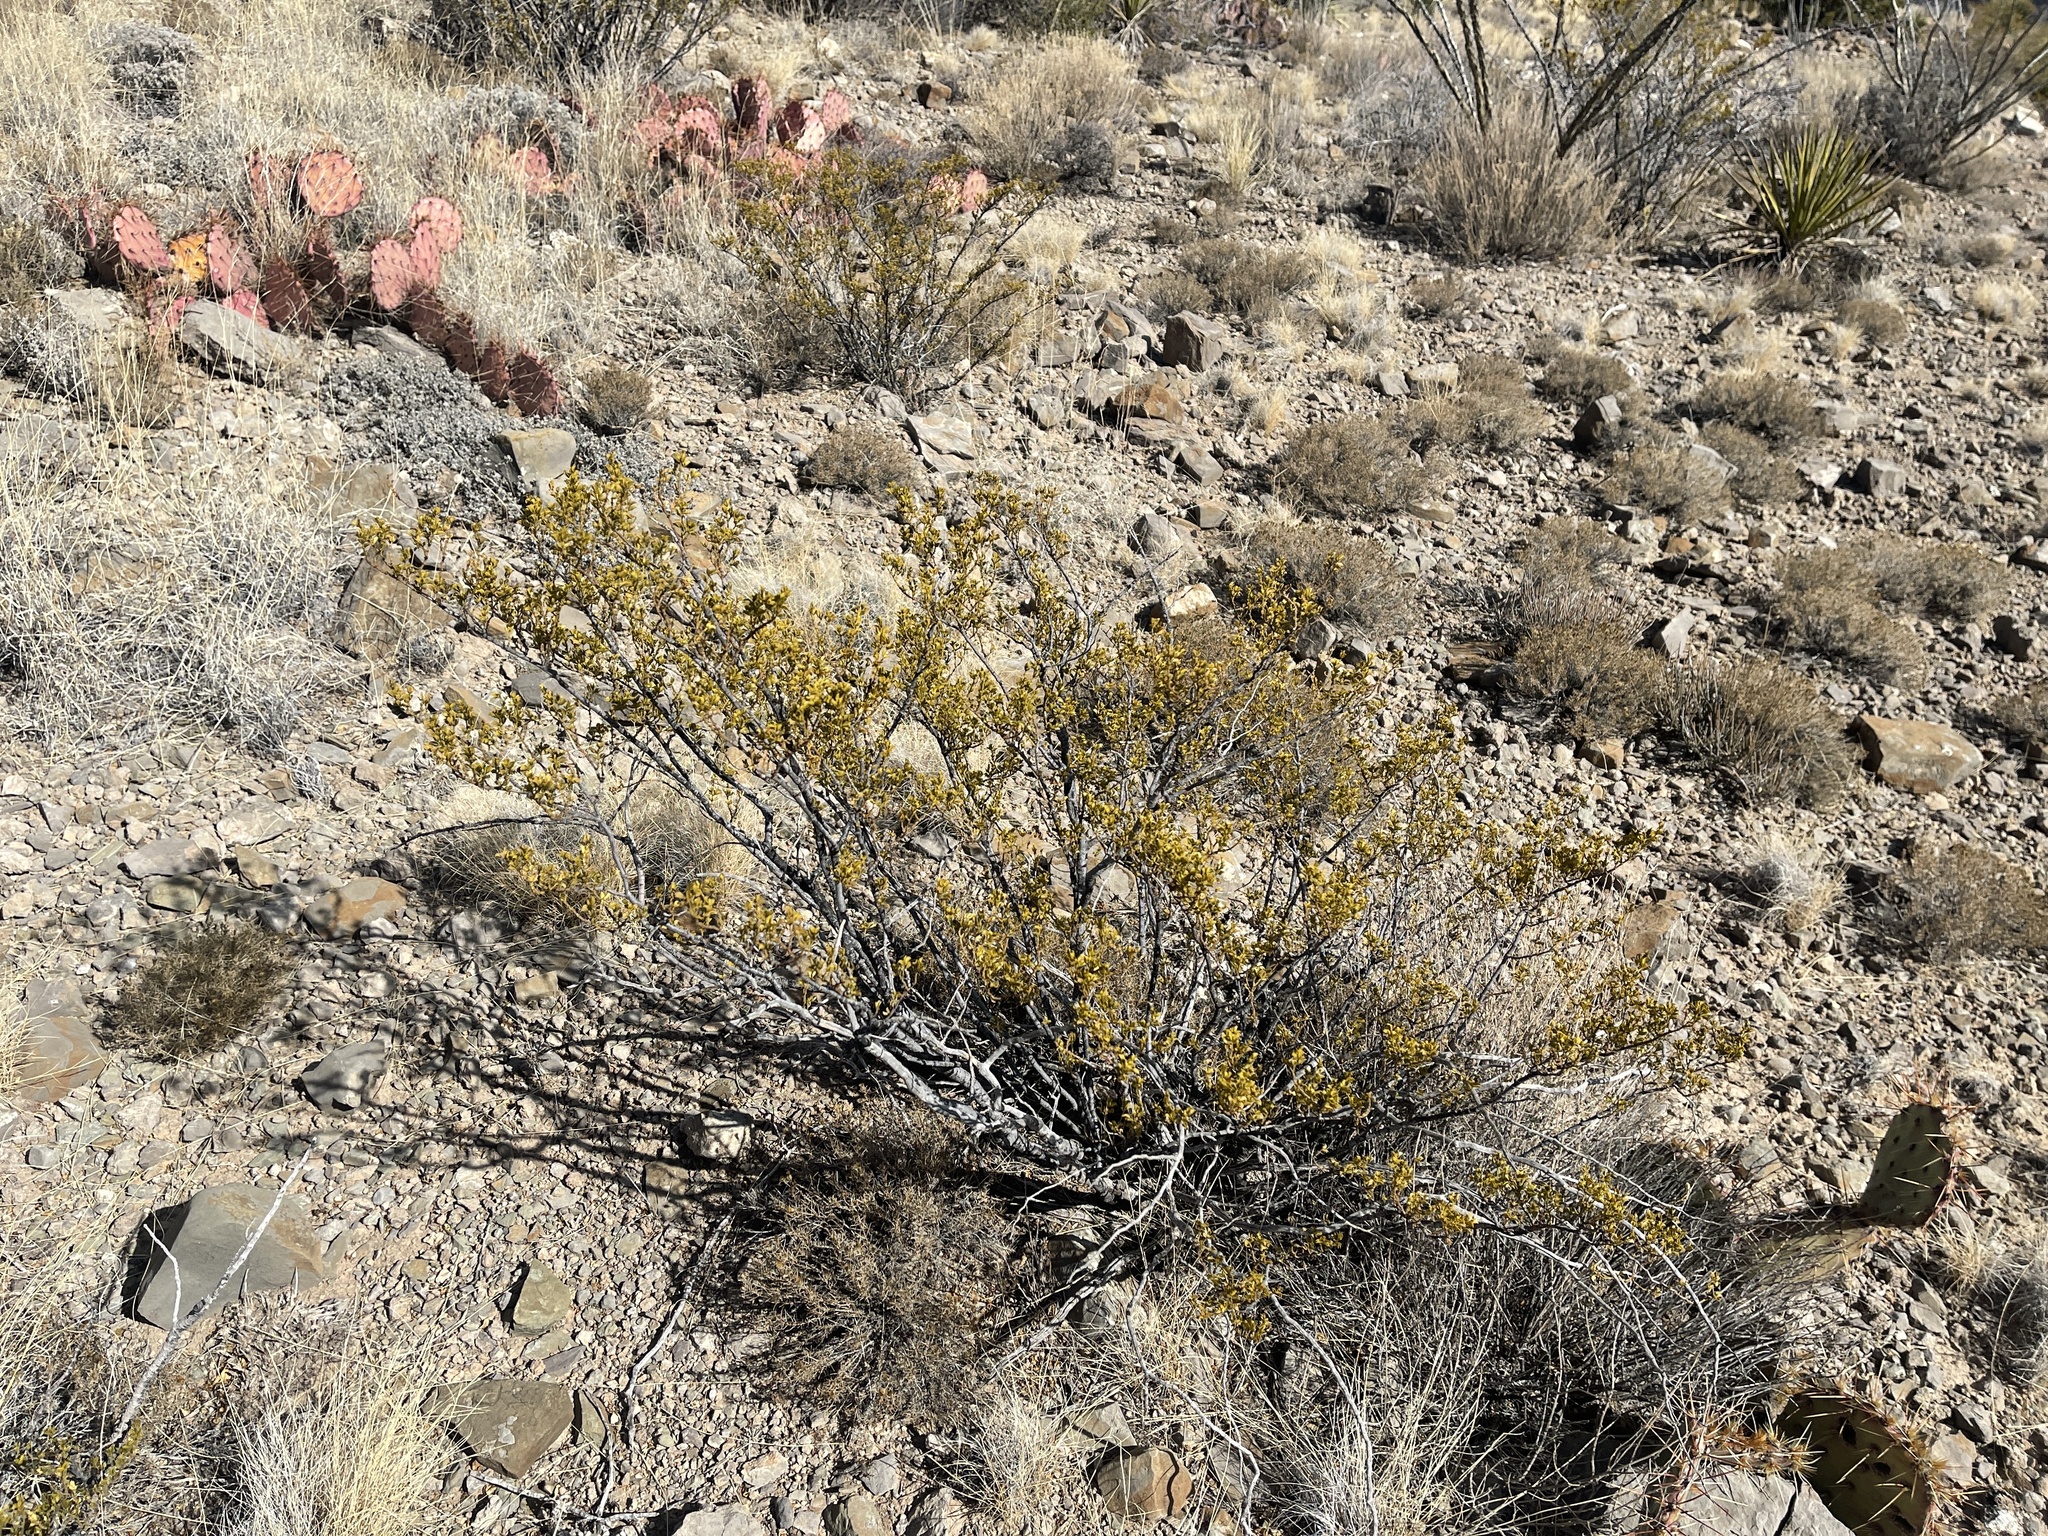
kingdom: Plantae
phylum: Tracheophyta
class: Magnoliopsida
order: Zygophyllales
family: Zygophyllaceae
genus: Larrea
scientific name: Larrea tridentata
